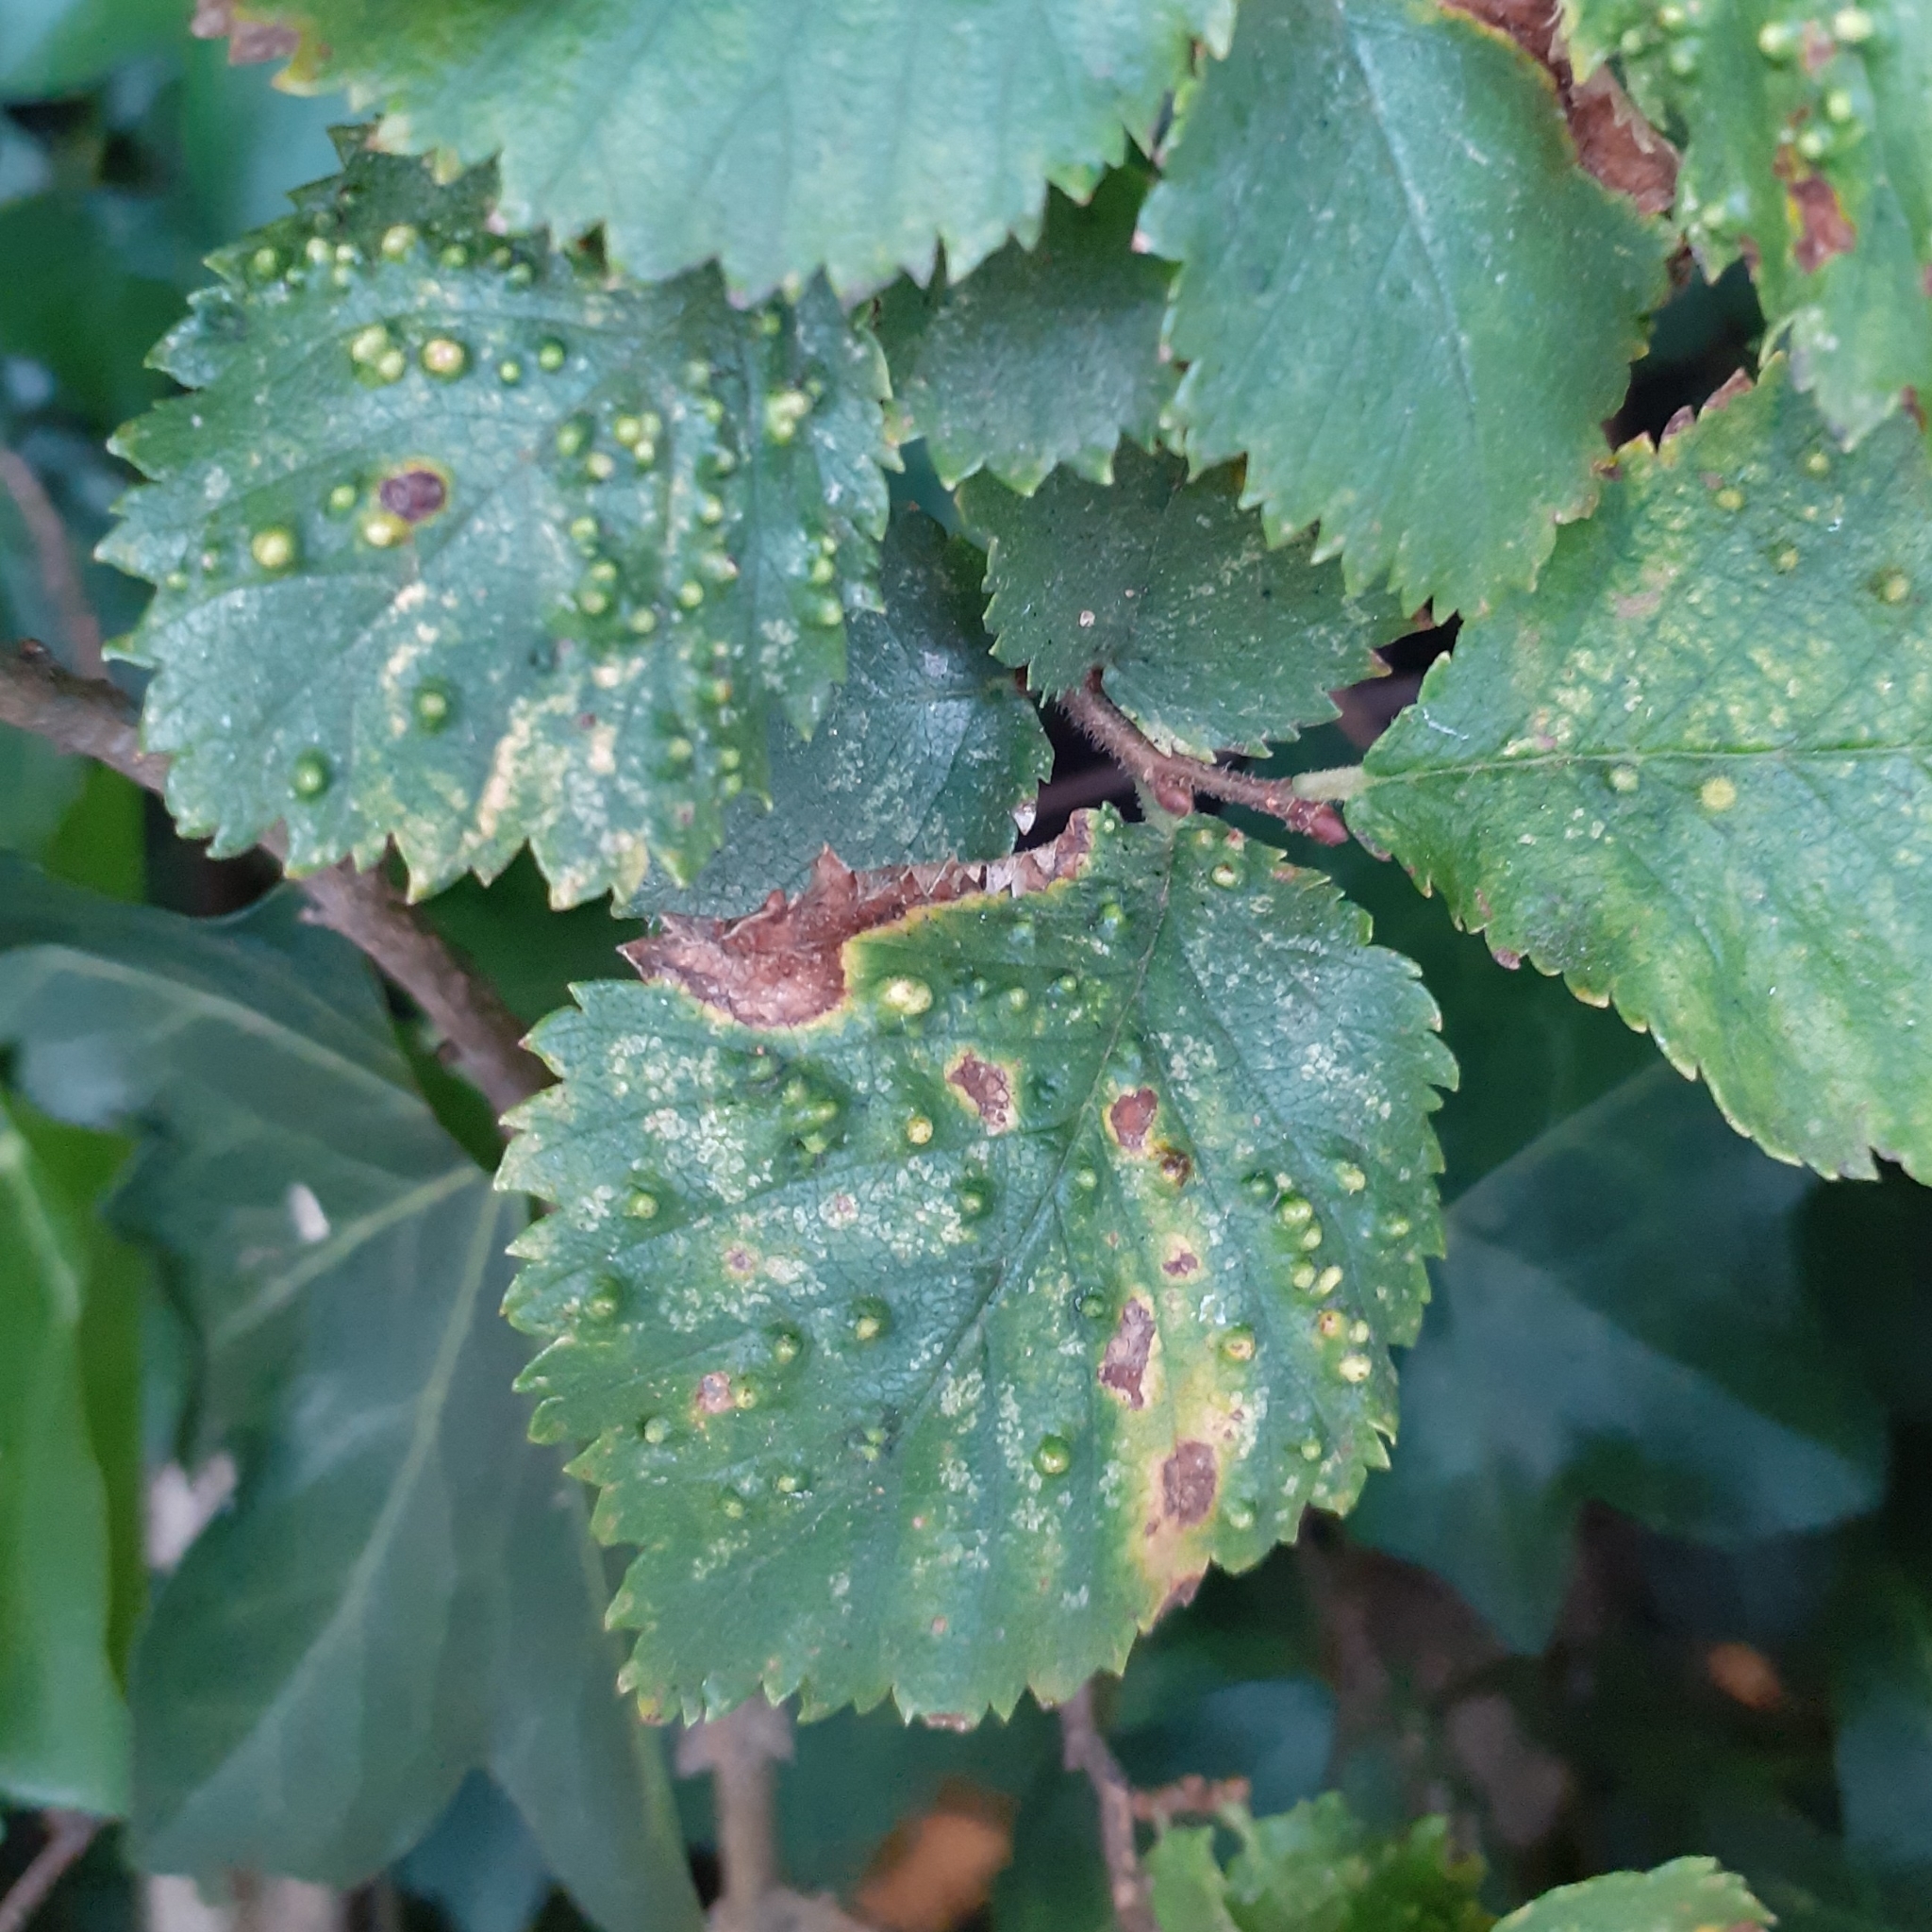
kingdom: Animalia
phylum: Arthropoda
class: Arachnida
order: Trombidiformes
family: Eriophyidae
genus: Aceria
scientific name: Aceria brevipunctata
